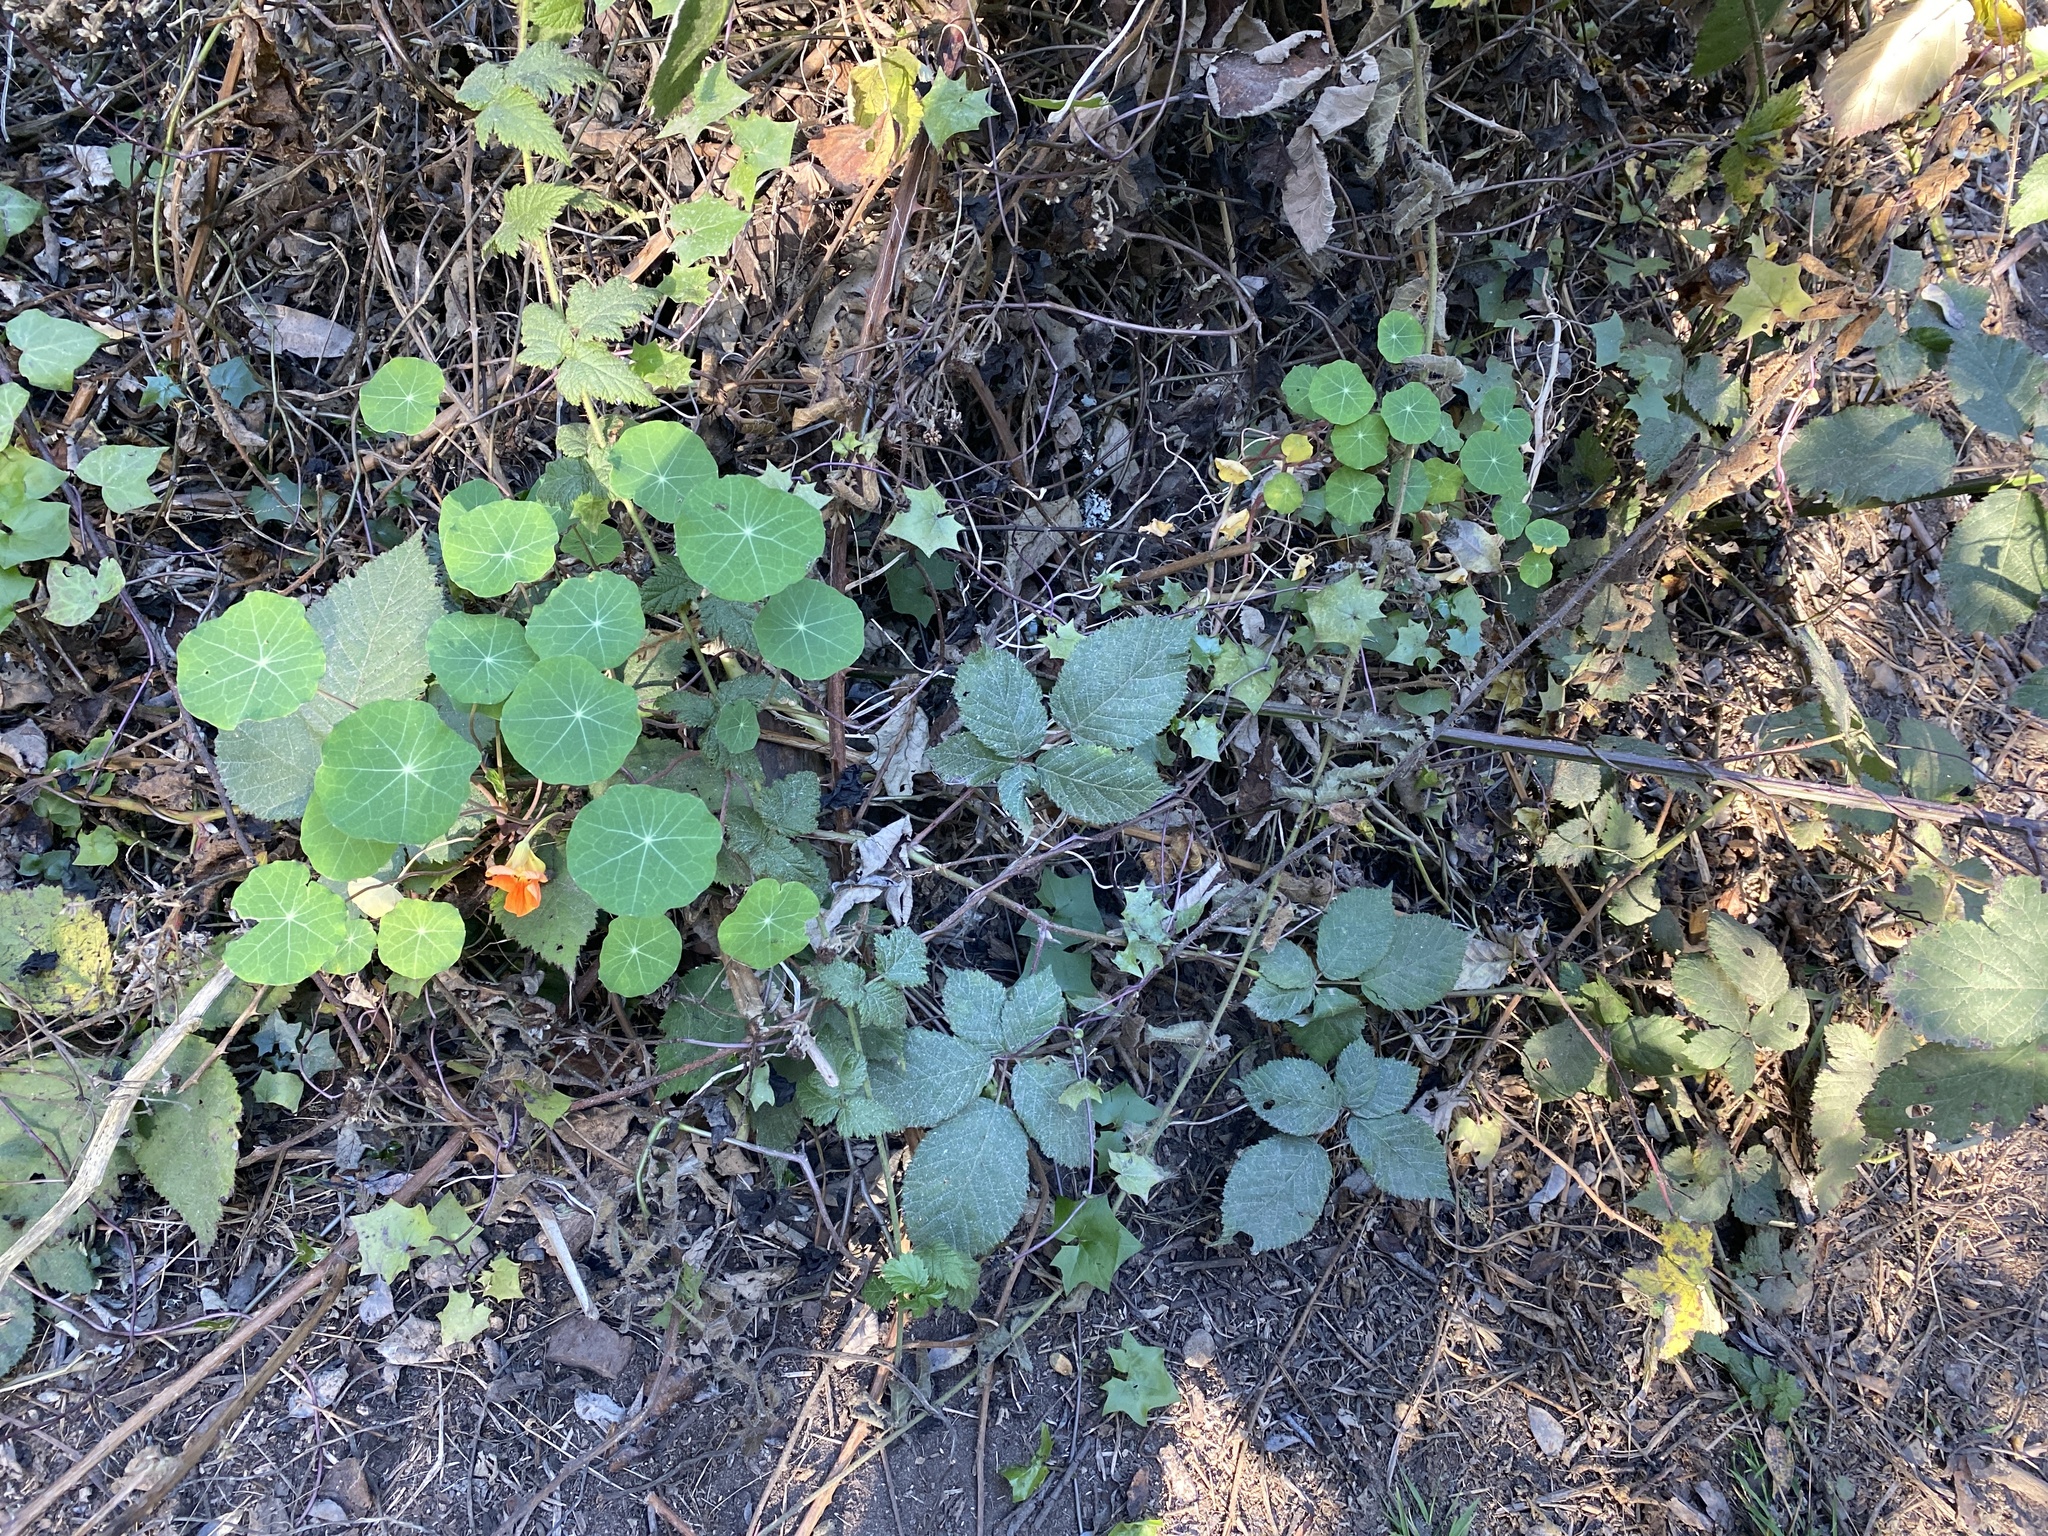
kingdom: Plantae
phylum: Tracheophyta
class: Magnoliopsida
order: Brassicales
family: Tropaeolaceae
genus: Tropaeolum
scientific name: Tropaeolum majus
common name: Nasturtium
